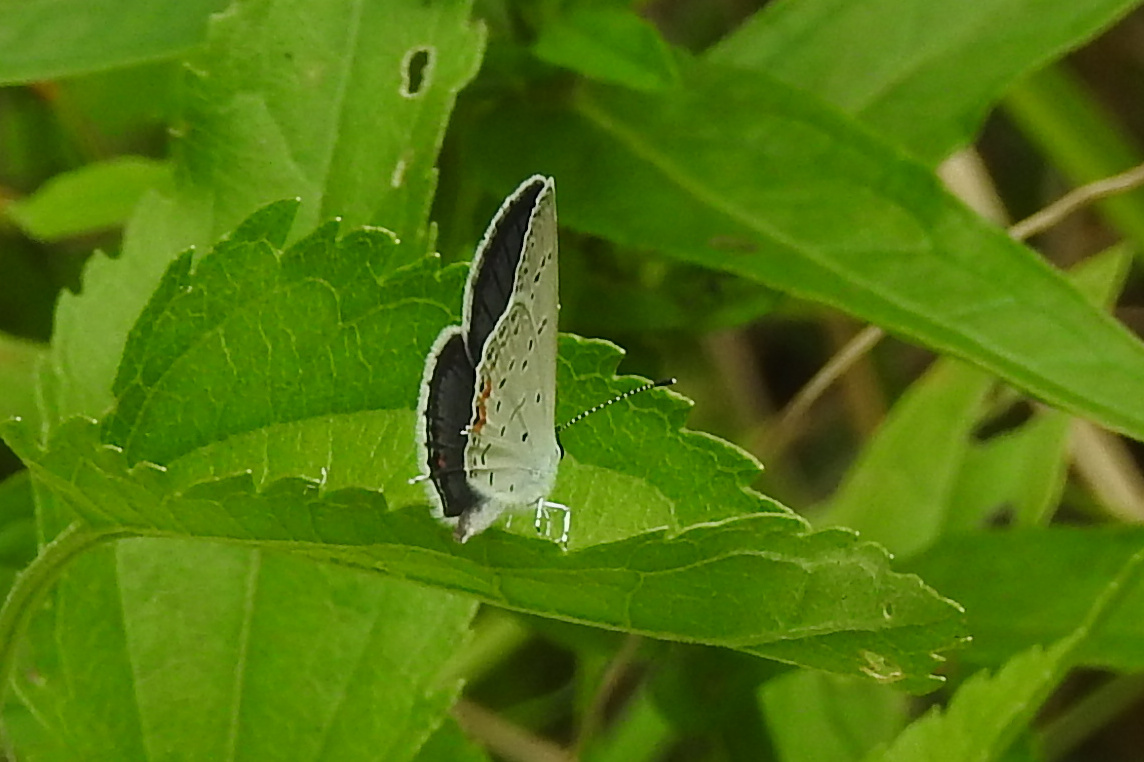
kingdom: Animalia
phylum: Arthropoda
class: Insecta
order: Lepidoptera
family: Lycaenidae
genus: Elkalyce
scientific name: Elkalyce comyntas
